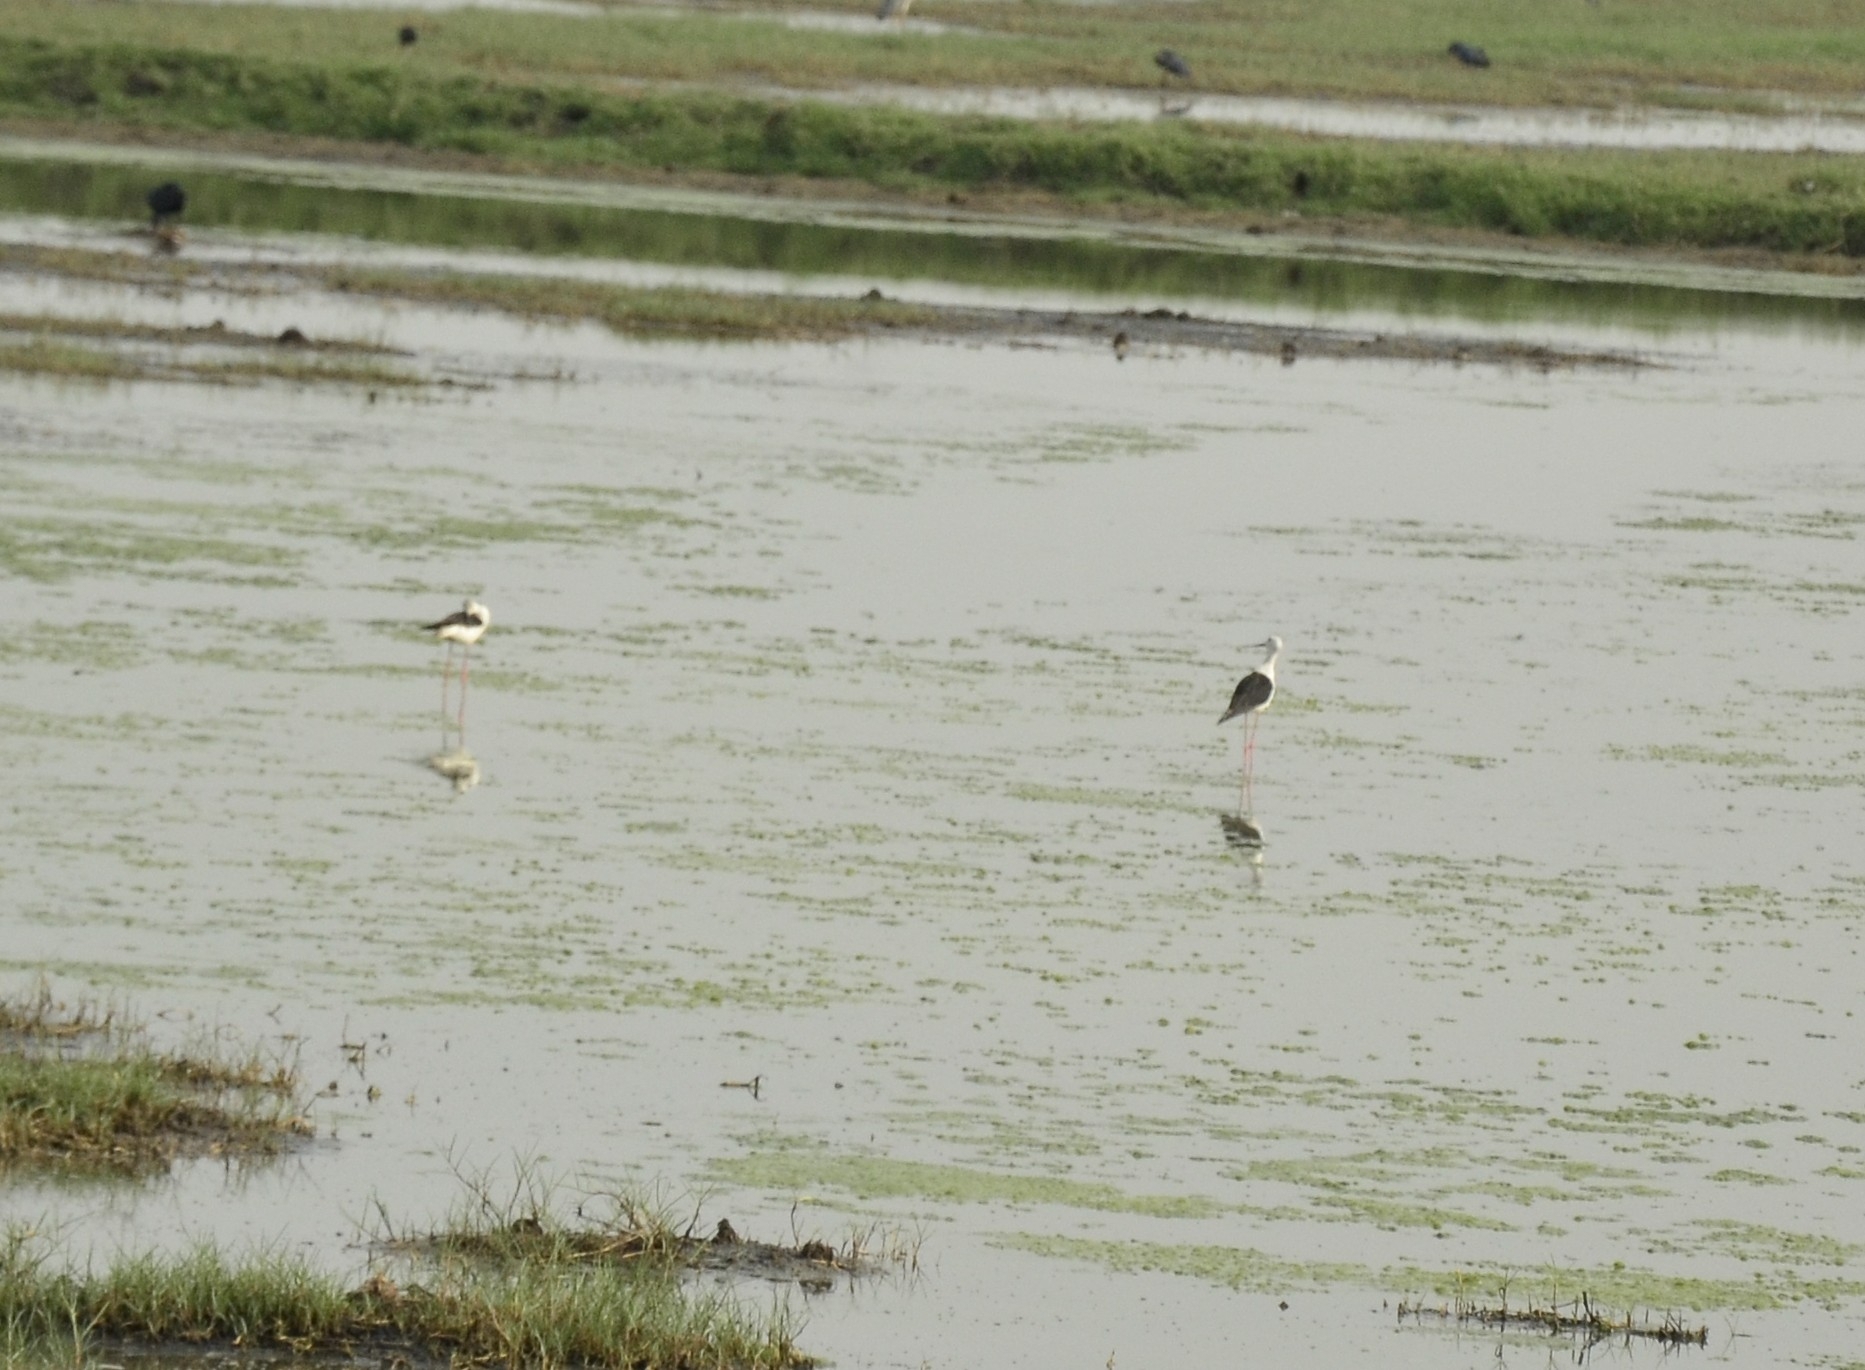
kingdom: Animalia
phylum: Chordata
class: Aves
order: Charadriiformes
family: Recurvirostridae
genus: Himantopus
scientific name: Himantopus himantopus
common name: Black-winged stilt
